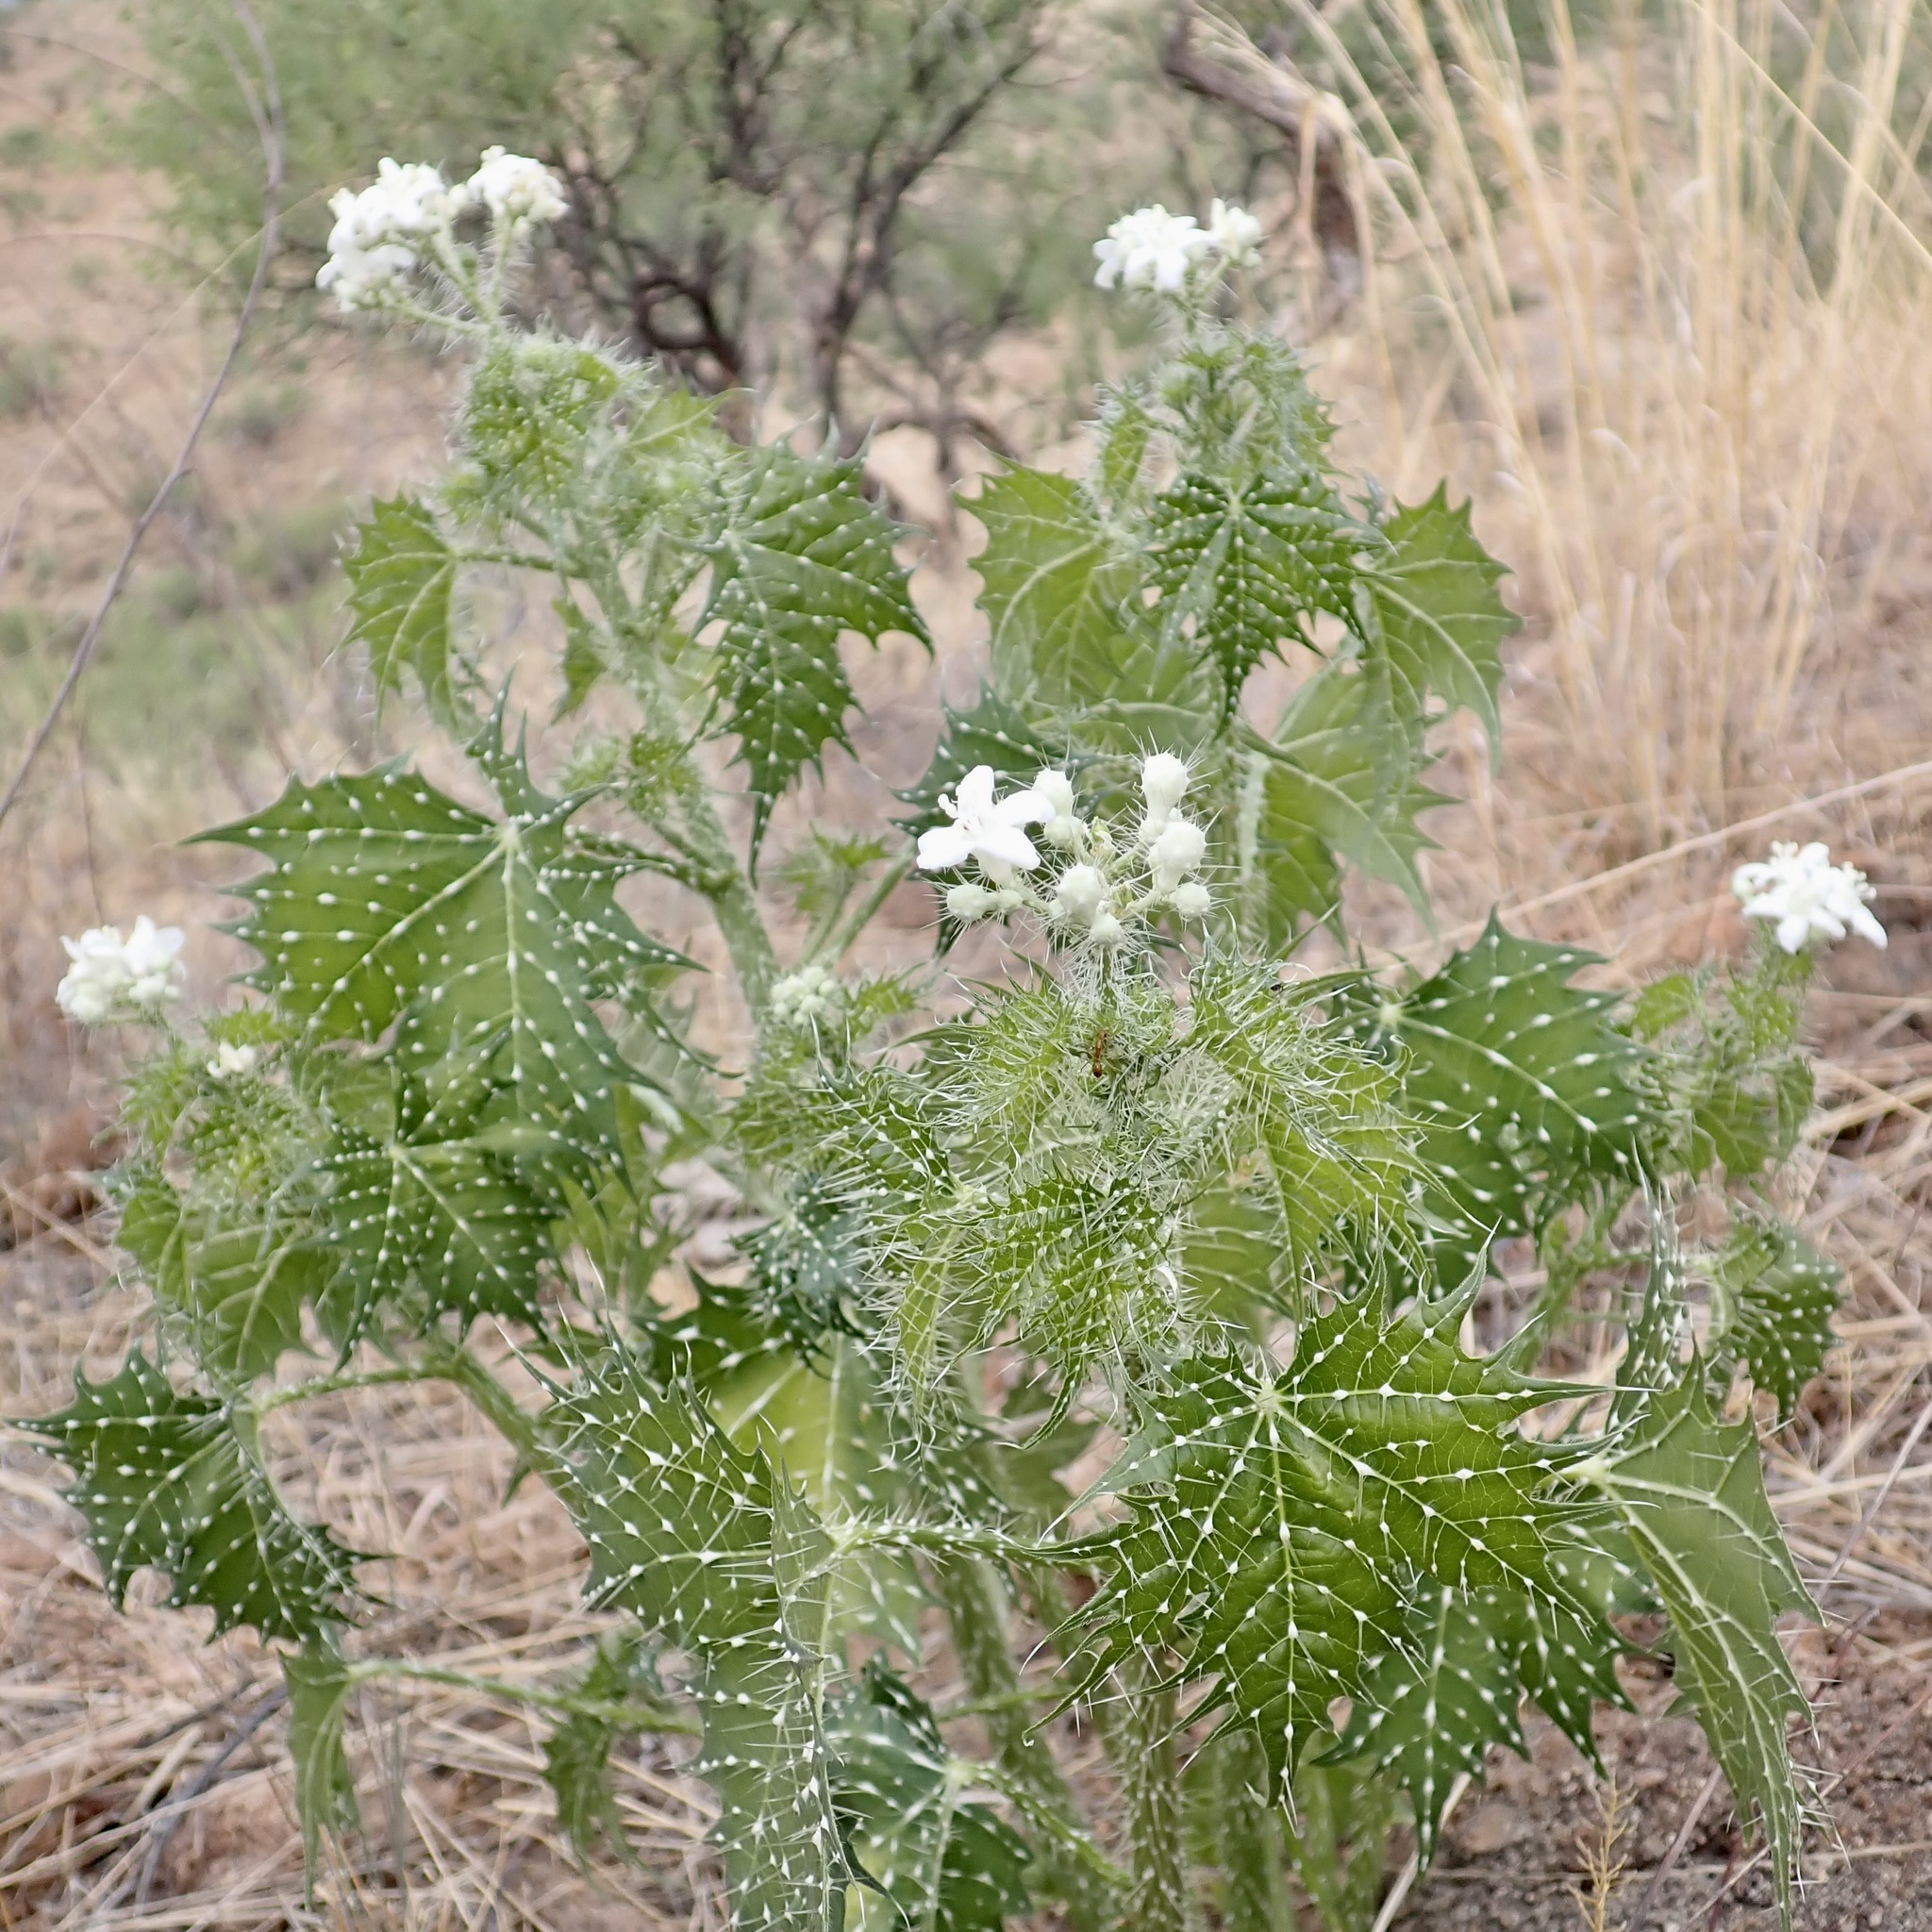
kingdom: Plantae
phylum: Tracheophyta
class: Magnoliopsida
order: Malpighiales
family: Euphorbiaceae
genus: Cnidoscolus
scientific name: Cnidoscolus angustidens
